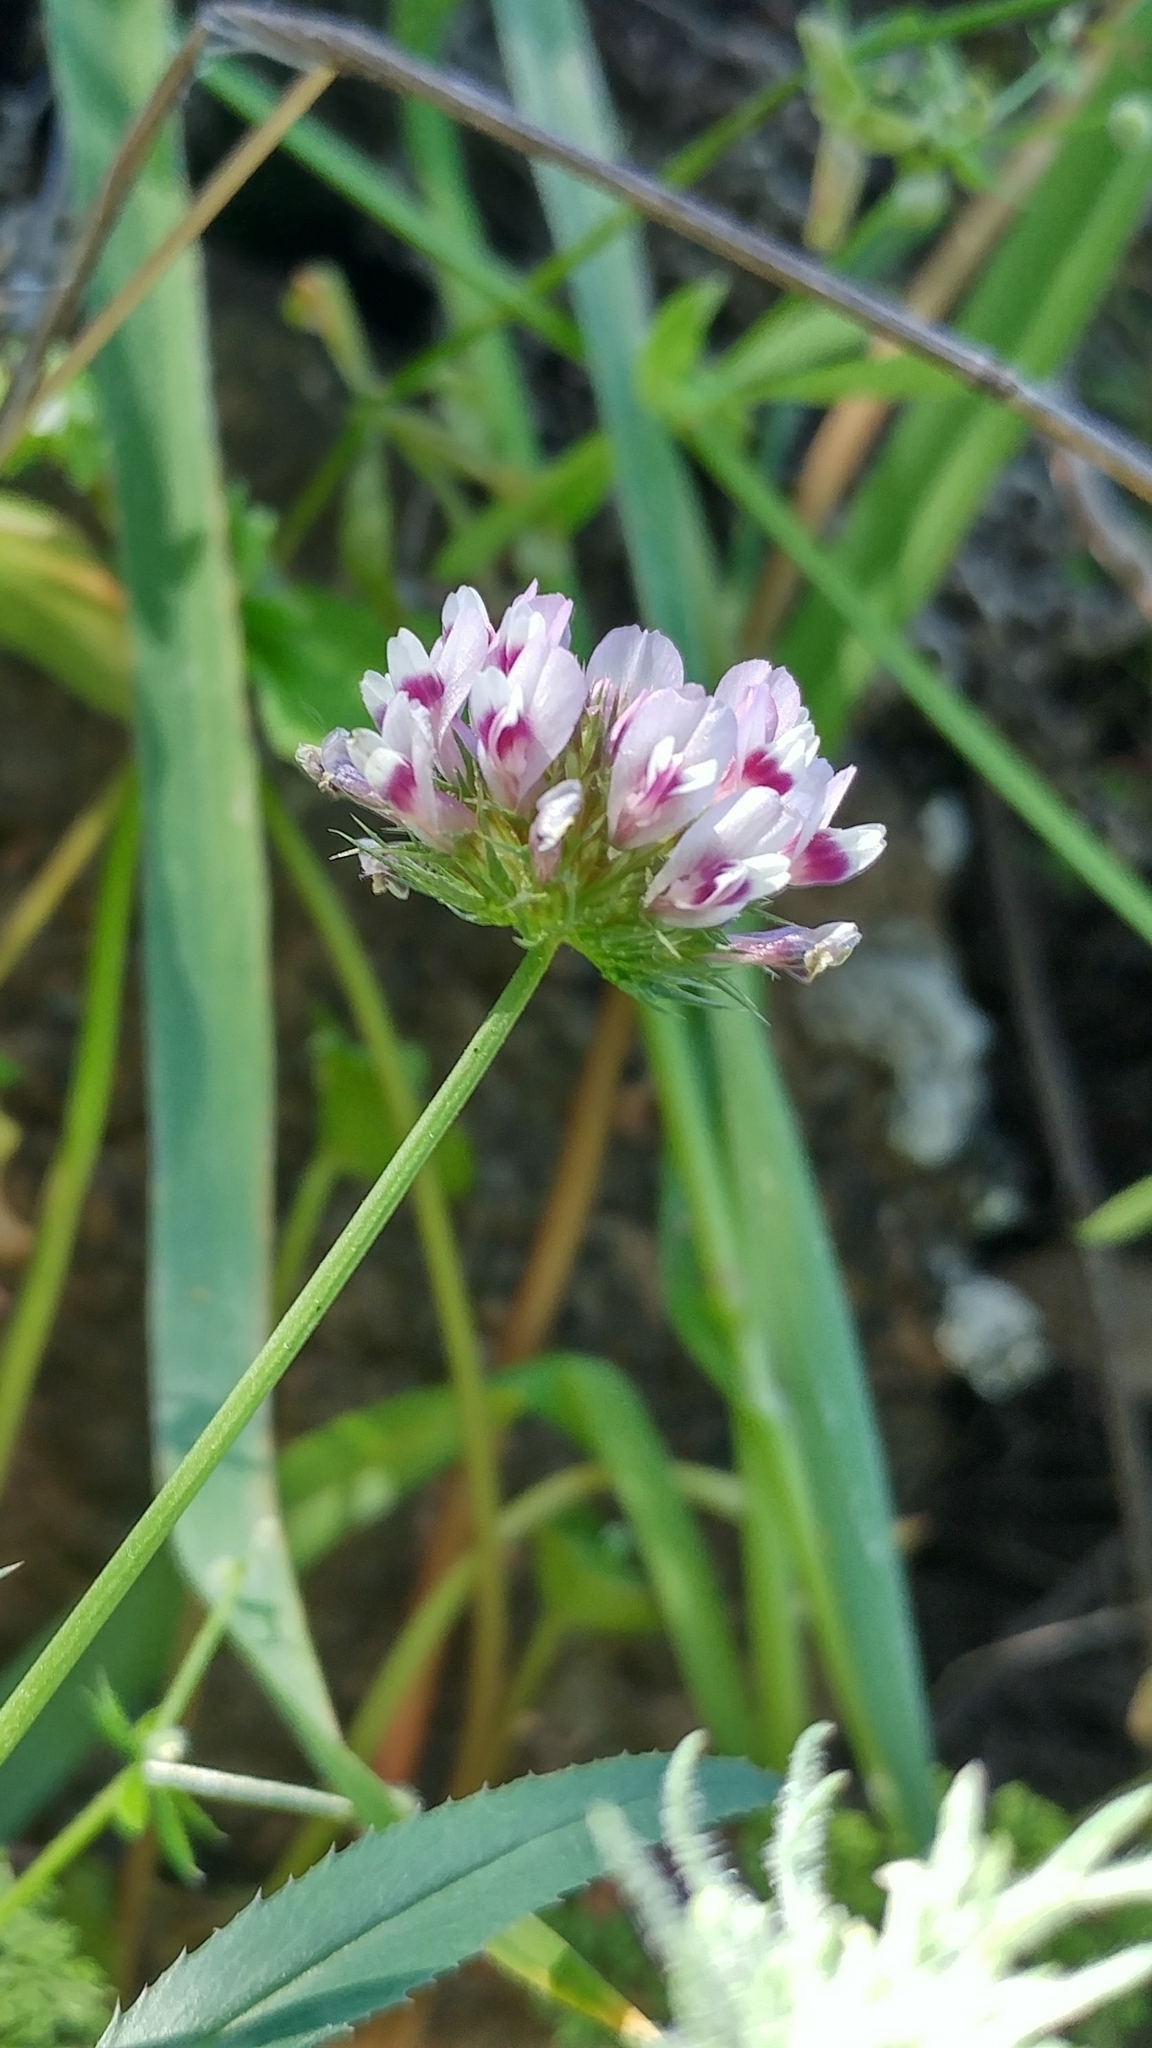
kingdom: Plantae
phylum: Tracheophyta
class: Magnoliopsida
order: Fabales
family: Fabaceae
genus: Trifolium
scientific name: Trifolium willdenovii
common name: Tomcat clover
